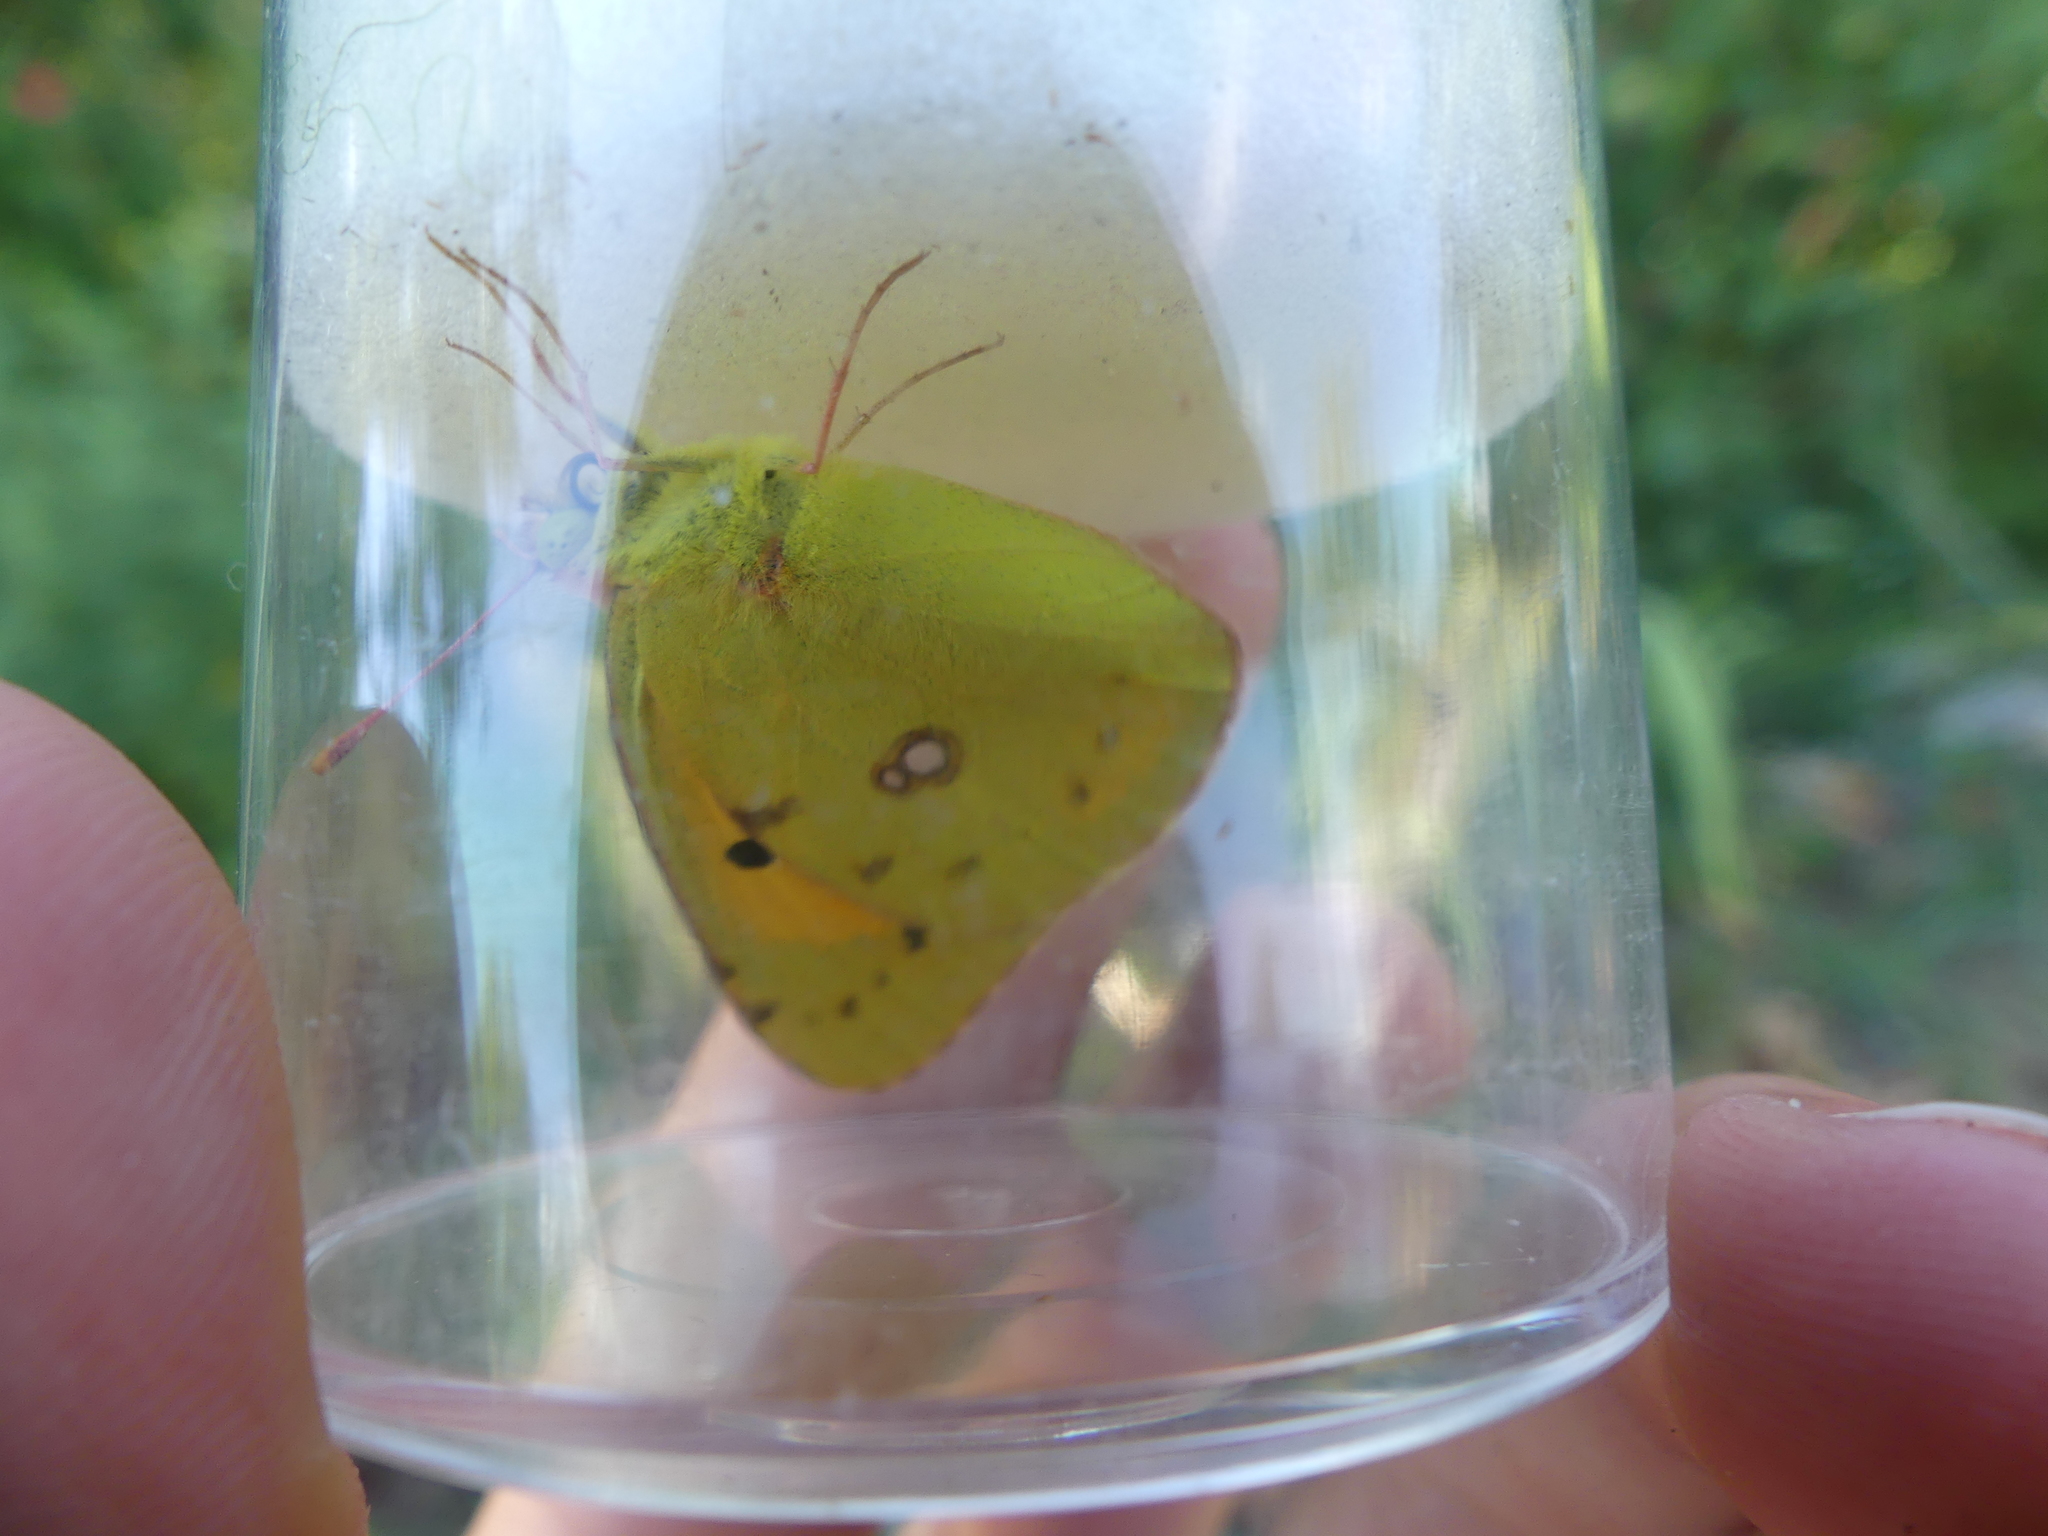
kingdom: Animalia
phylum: Arthropoda
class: Insecta
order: Lepidoptera
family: Pieridae
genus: Colias
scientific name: Colias croceus
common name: Clouded yellow
